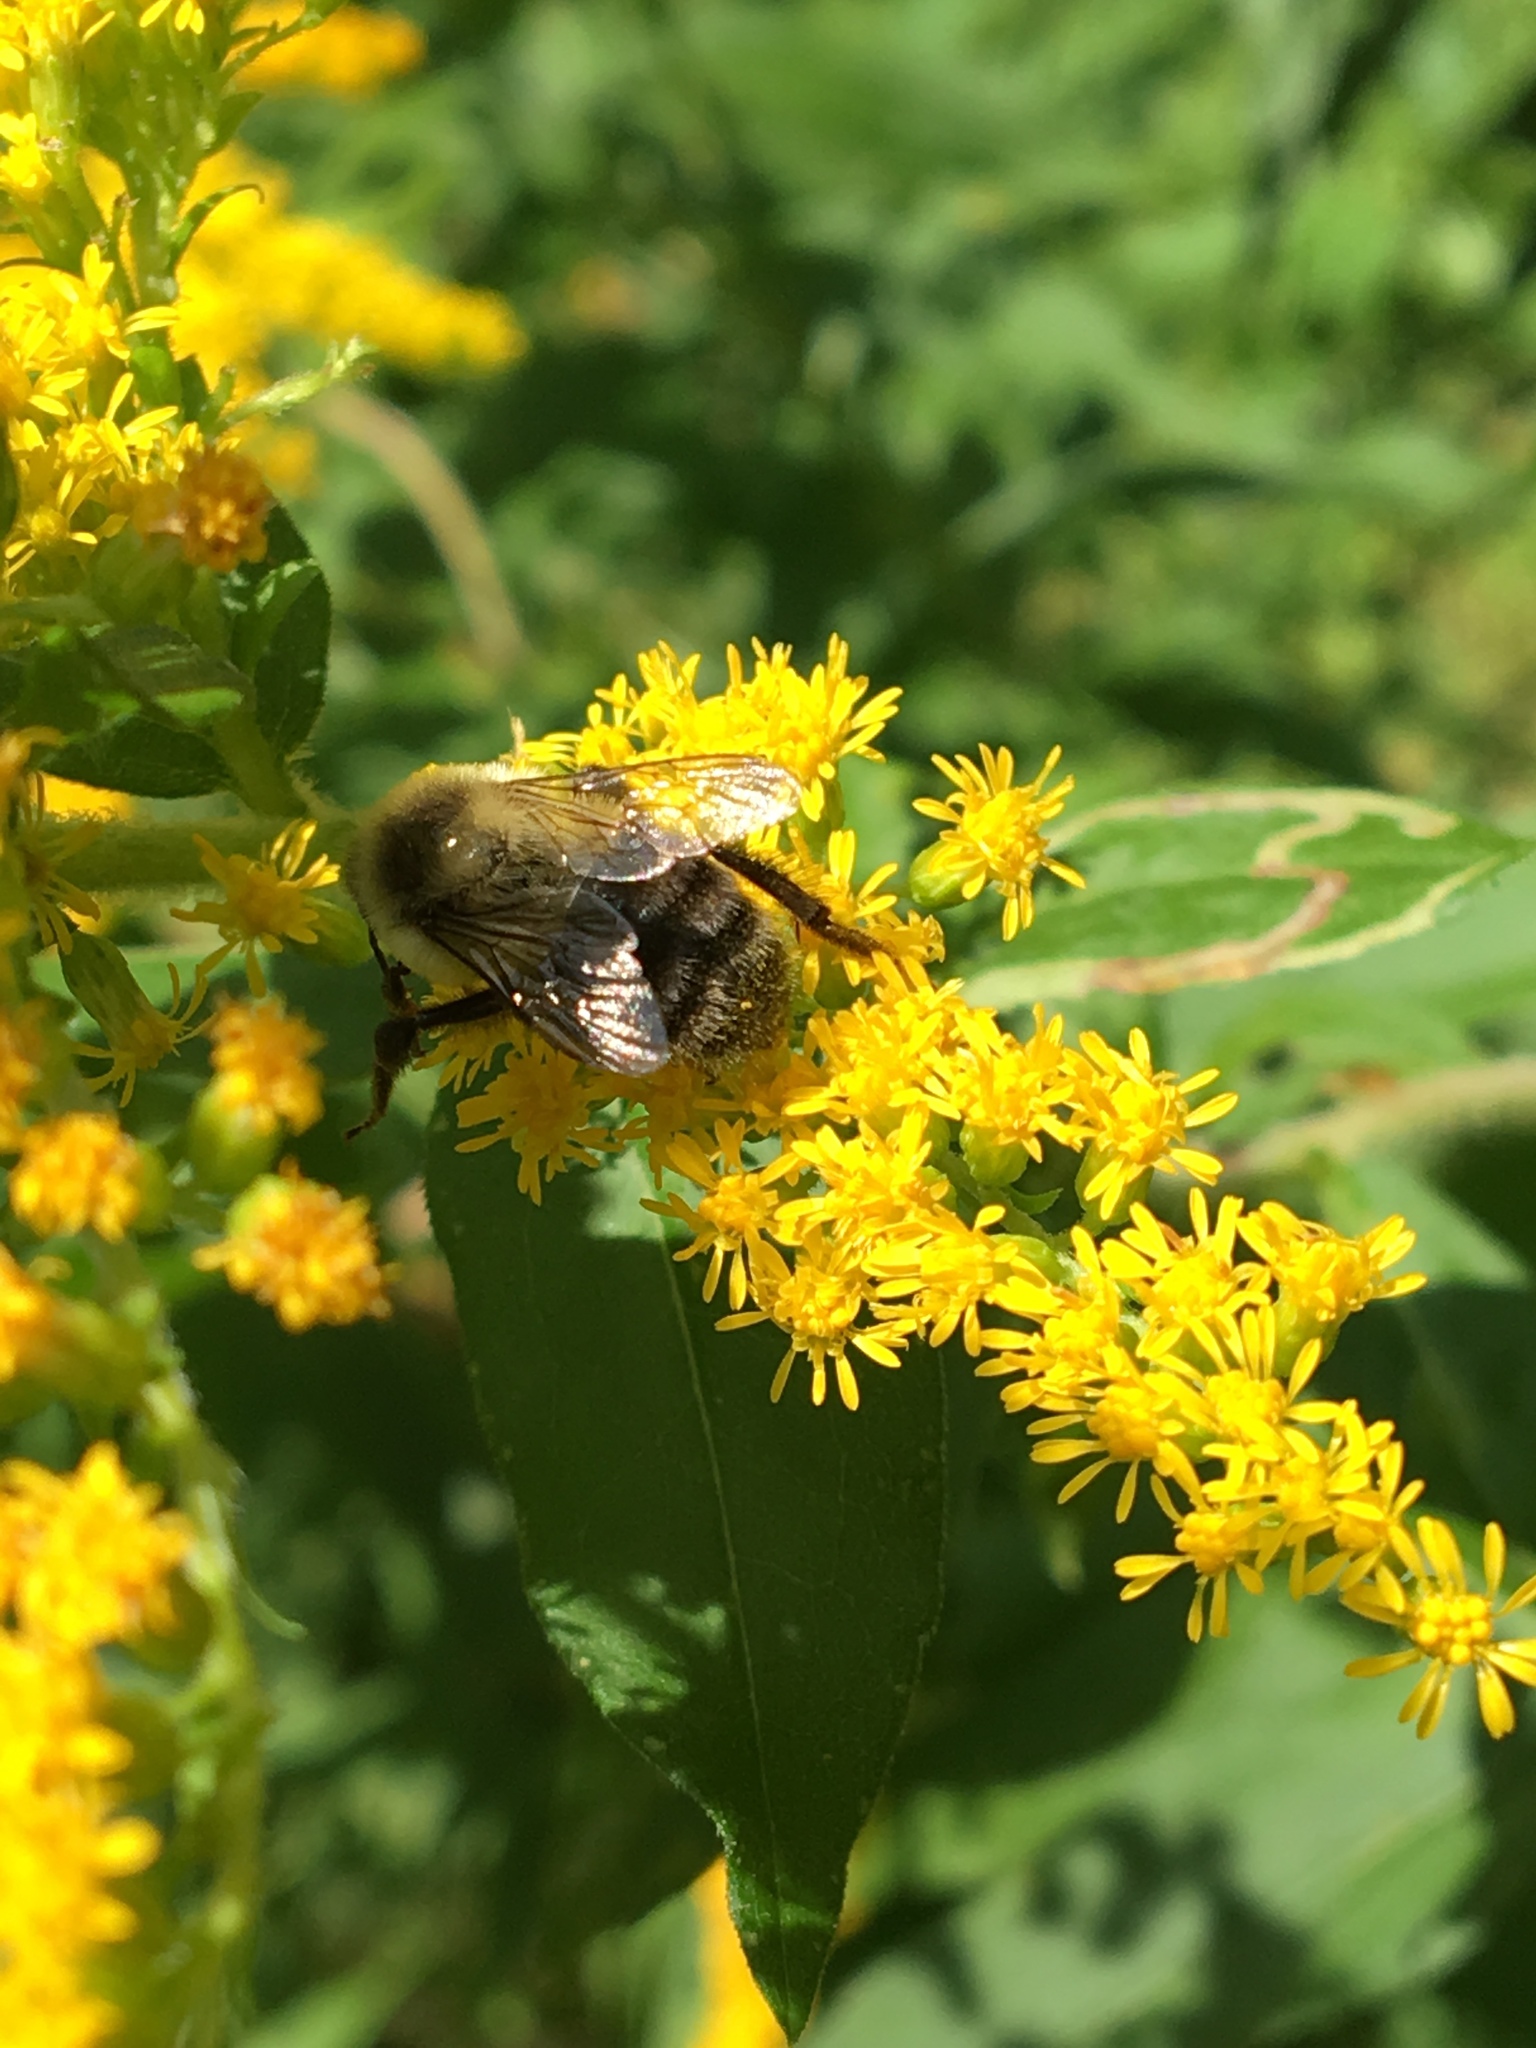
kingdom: Animalia
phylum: Arthropoda
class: Insecta
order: Hymenoptera
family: Apidae
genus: Bombus
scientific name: Bombus impatiens
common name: Common eastern bumble bee
